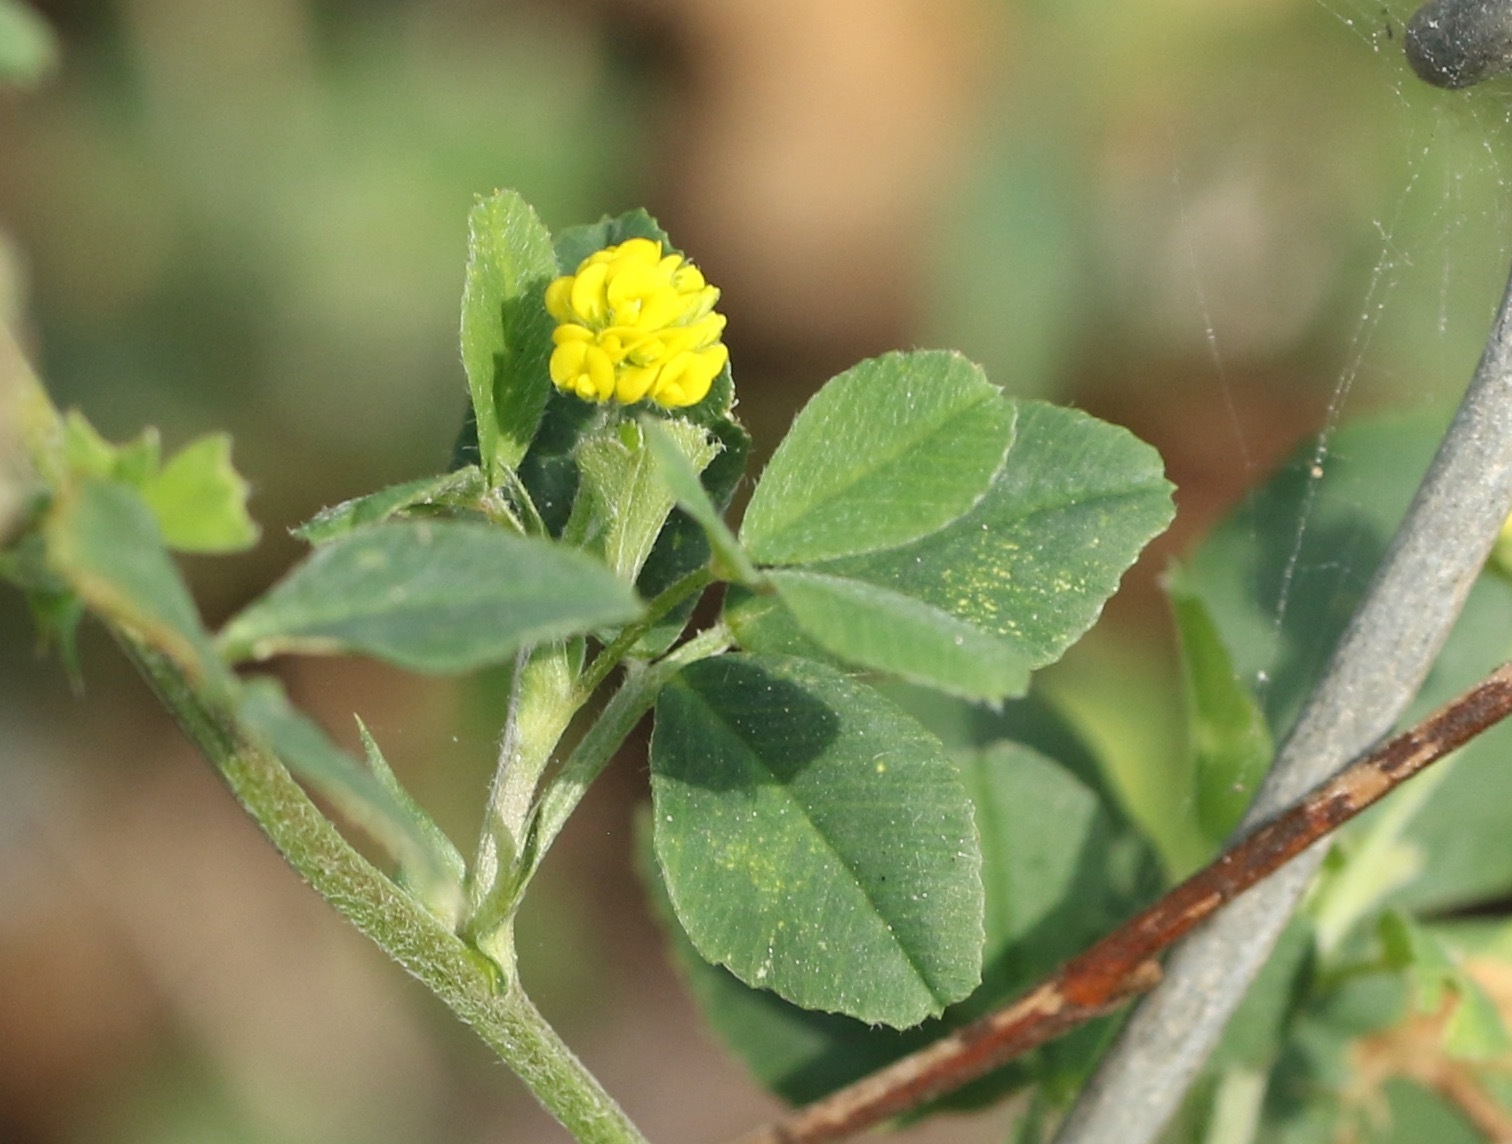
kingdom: Plantae
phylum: Tracheophyta
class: Magnoliopsida
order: Fabales
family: Fabaceae
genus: Medicago
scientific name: Medicago lupulina
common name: Black medick
